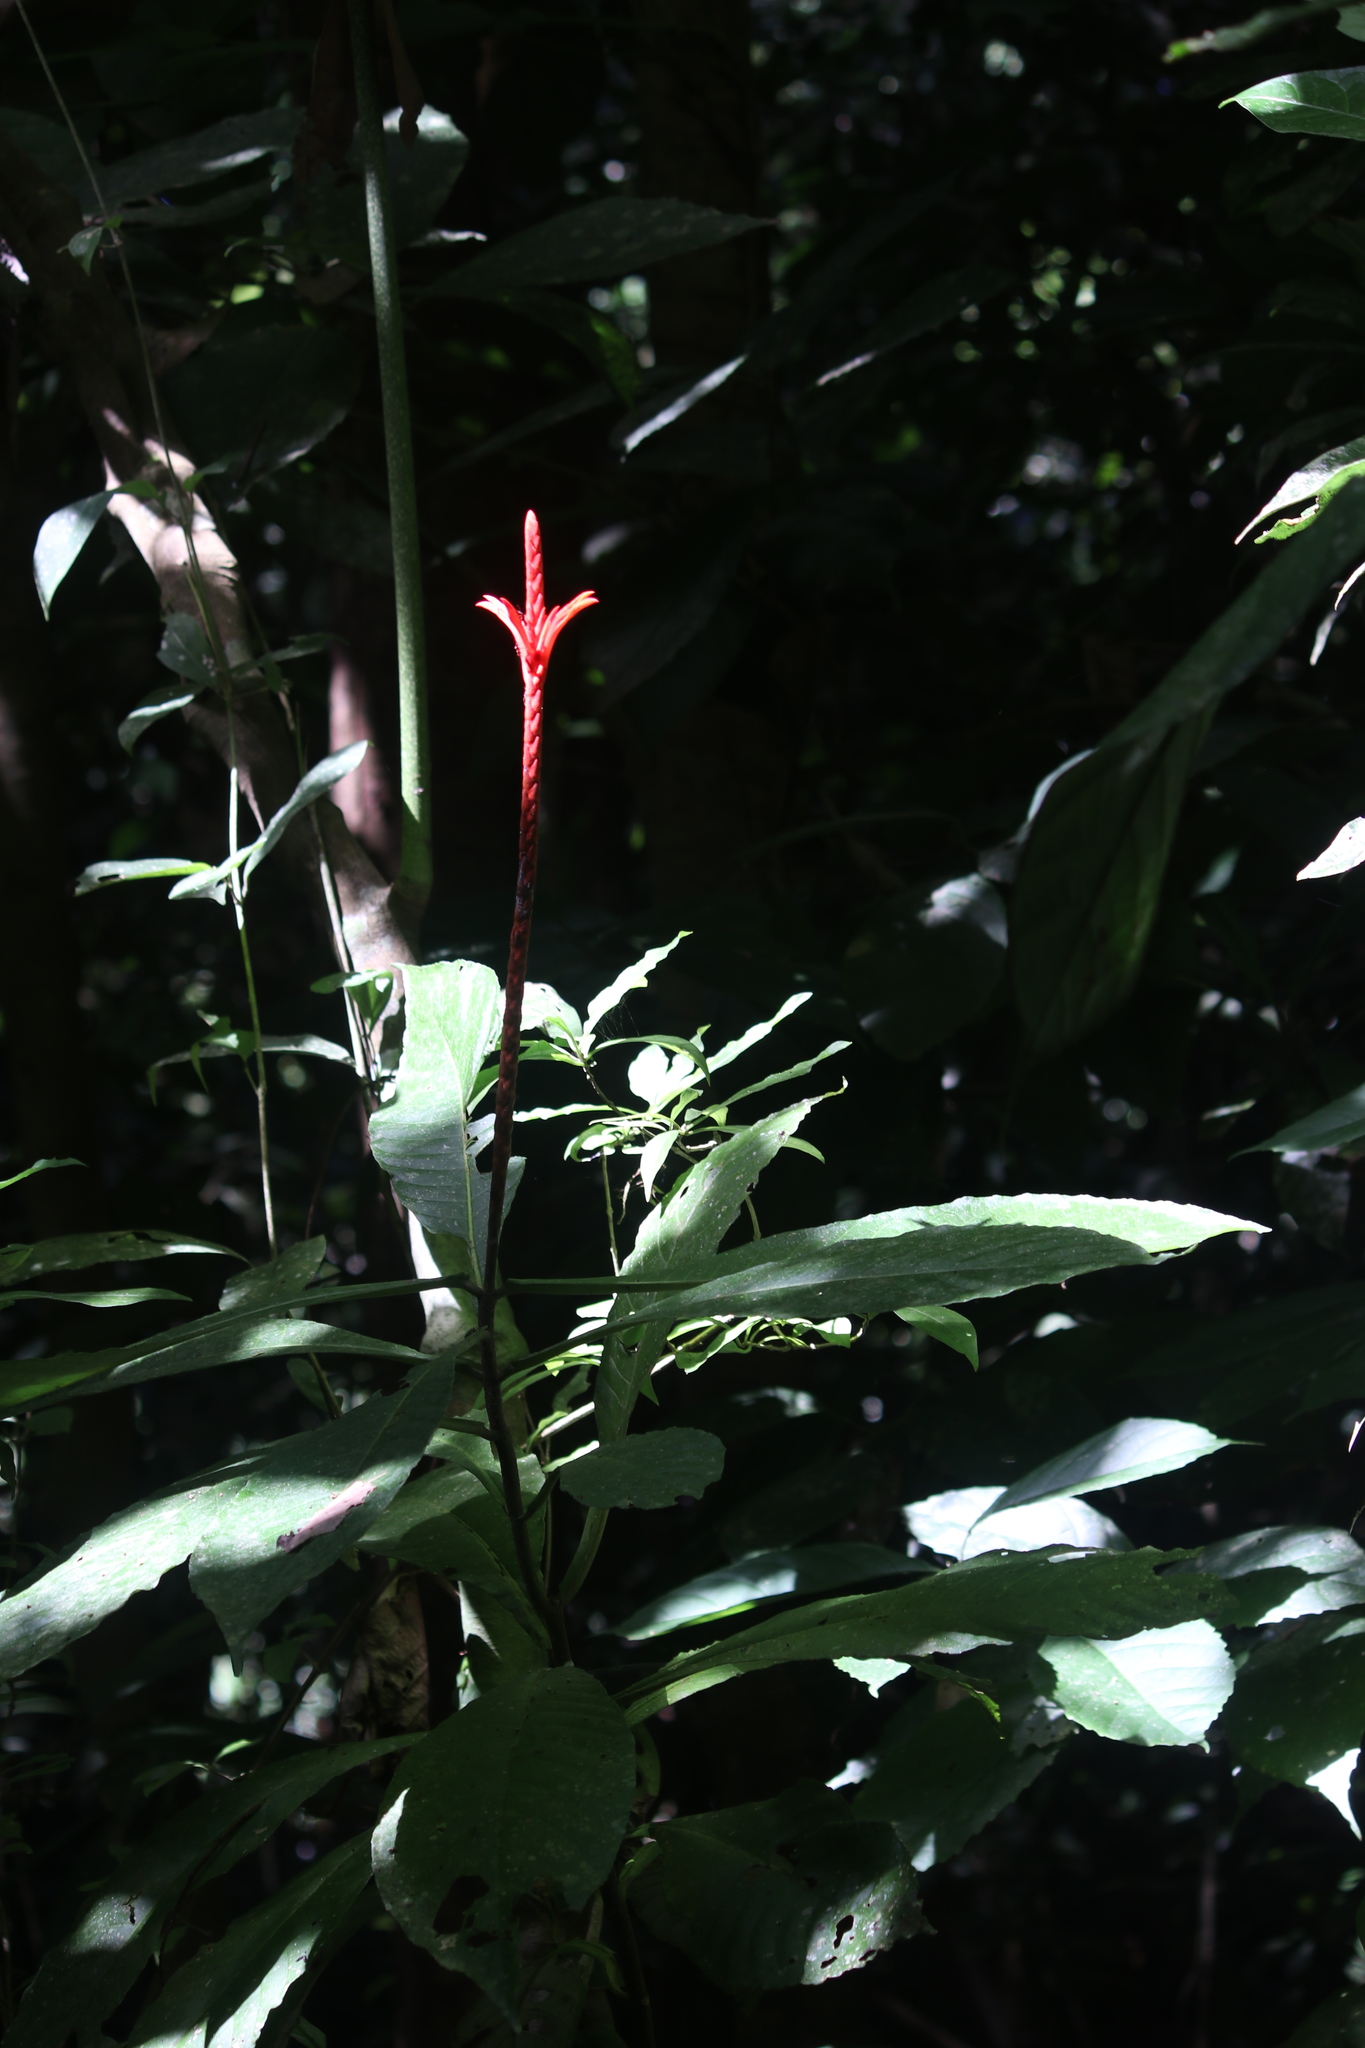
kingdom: Plantae
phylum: Tracheophyta
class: Magnoliopsida
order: Lamiales
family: Acanthaceae
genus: Aphelandra
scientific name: Aphelandra lingua-bovis
